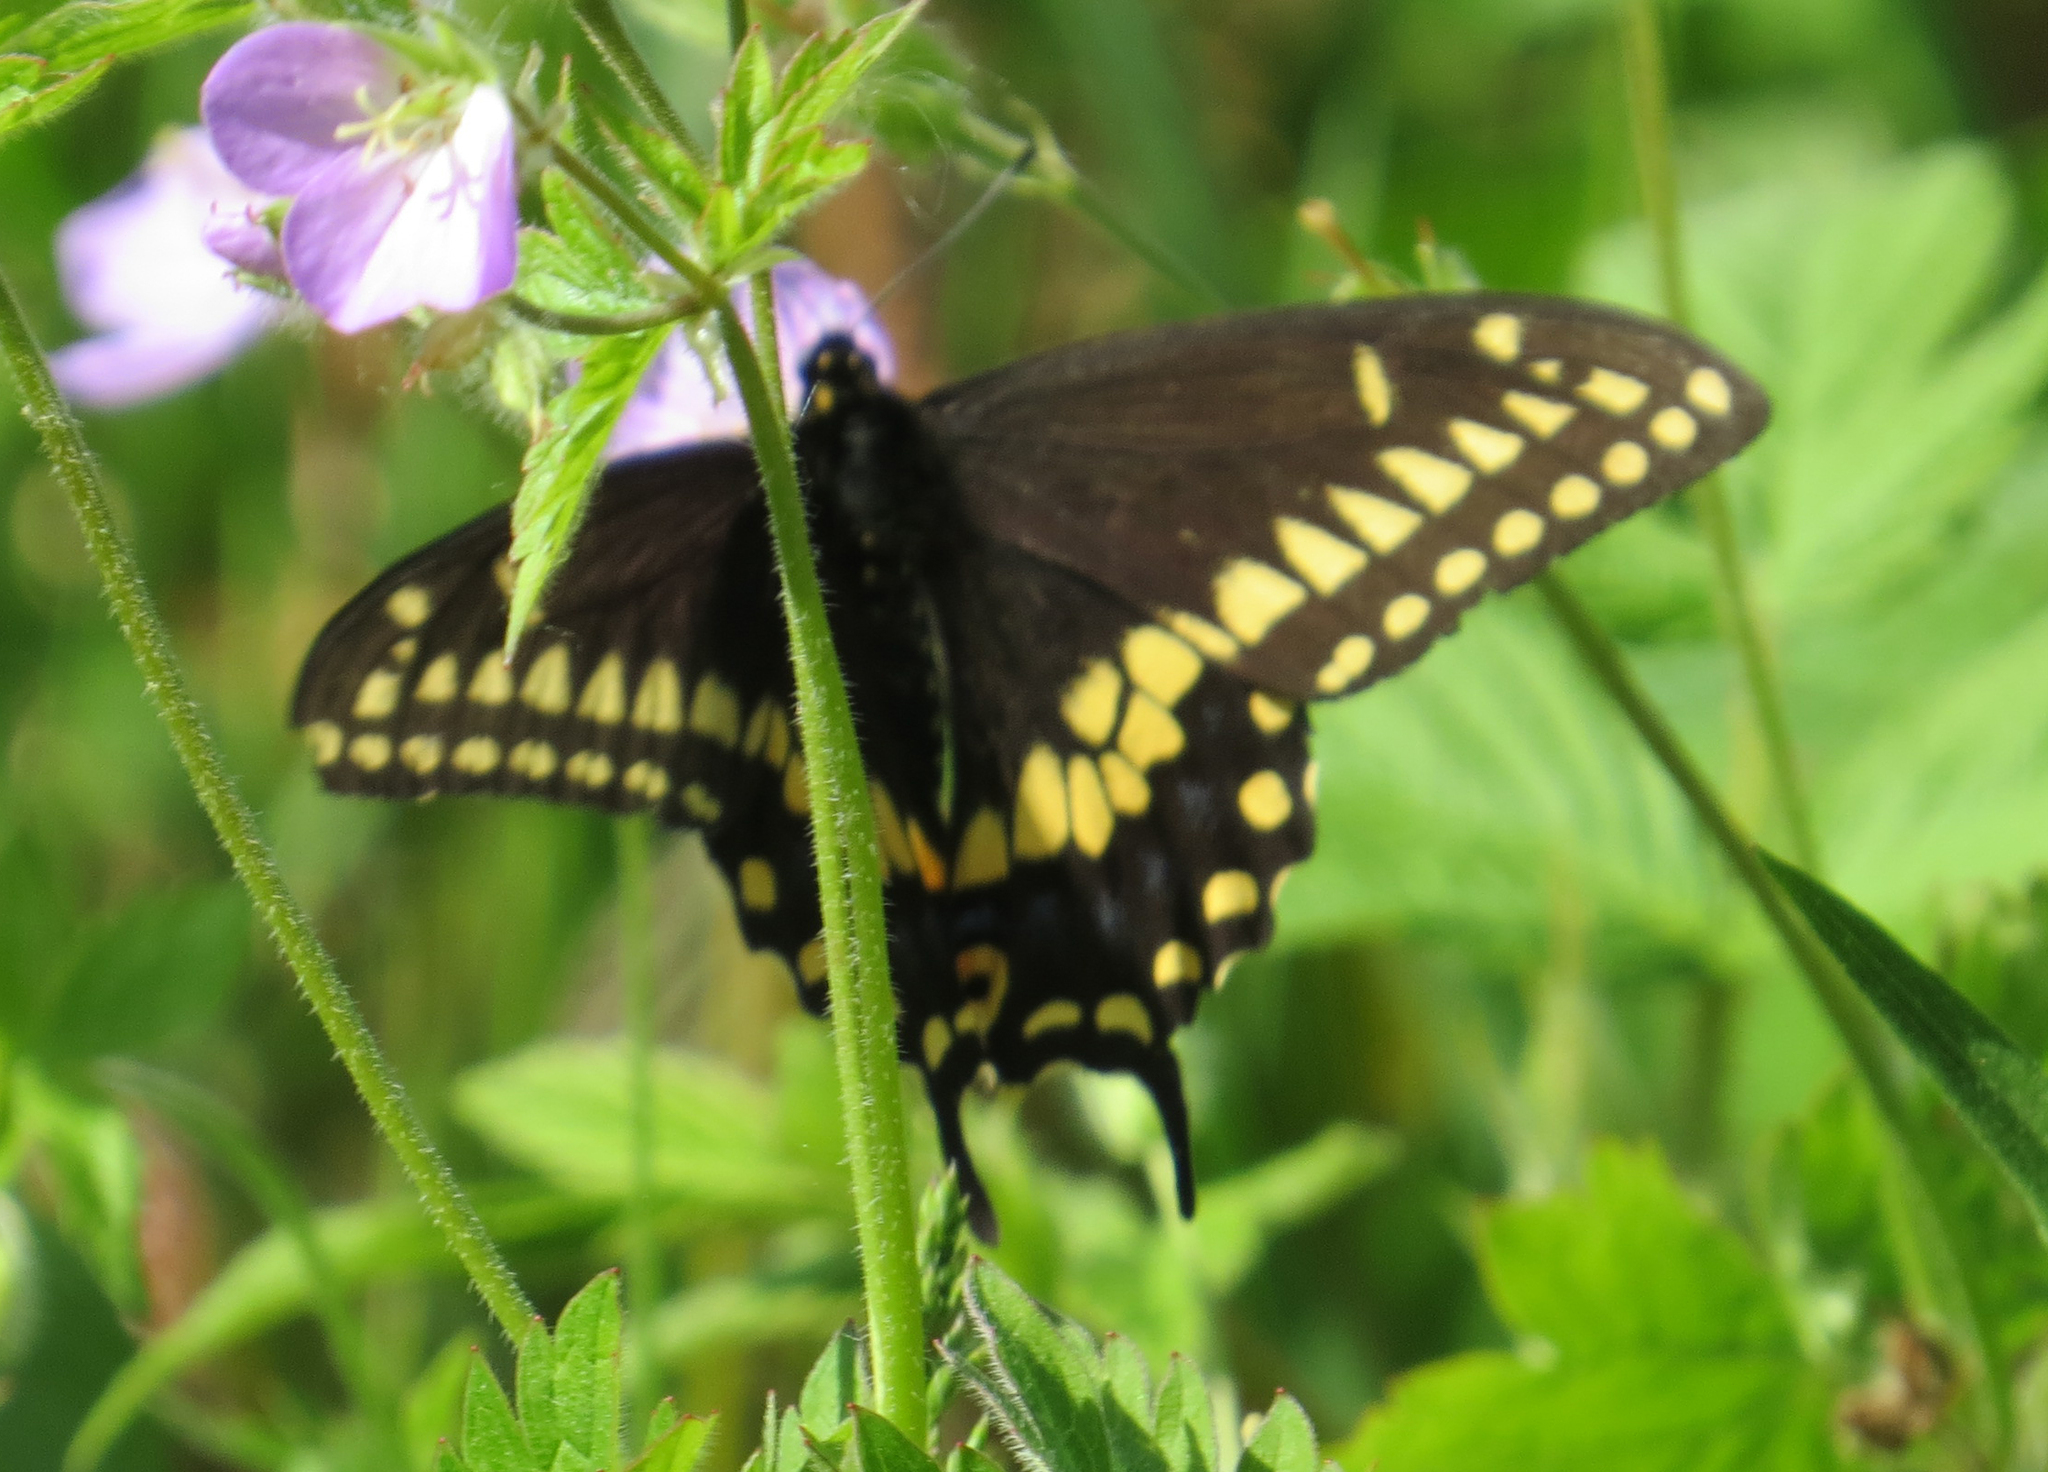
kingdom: Animalia
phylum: Arthropoda
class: Insecta
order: Lepidoptera
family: Papilionidae
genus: Papilio
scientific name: Papilio polyxenes
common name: Black swallowtail
